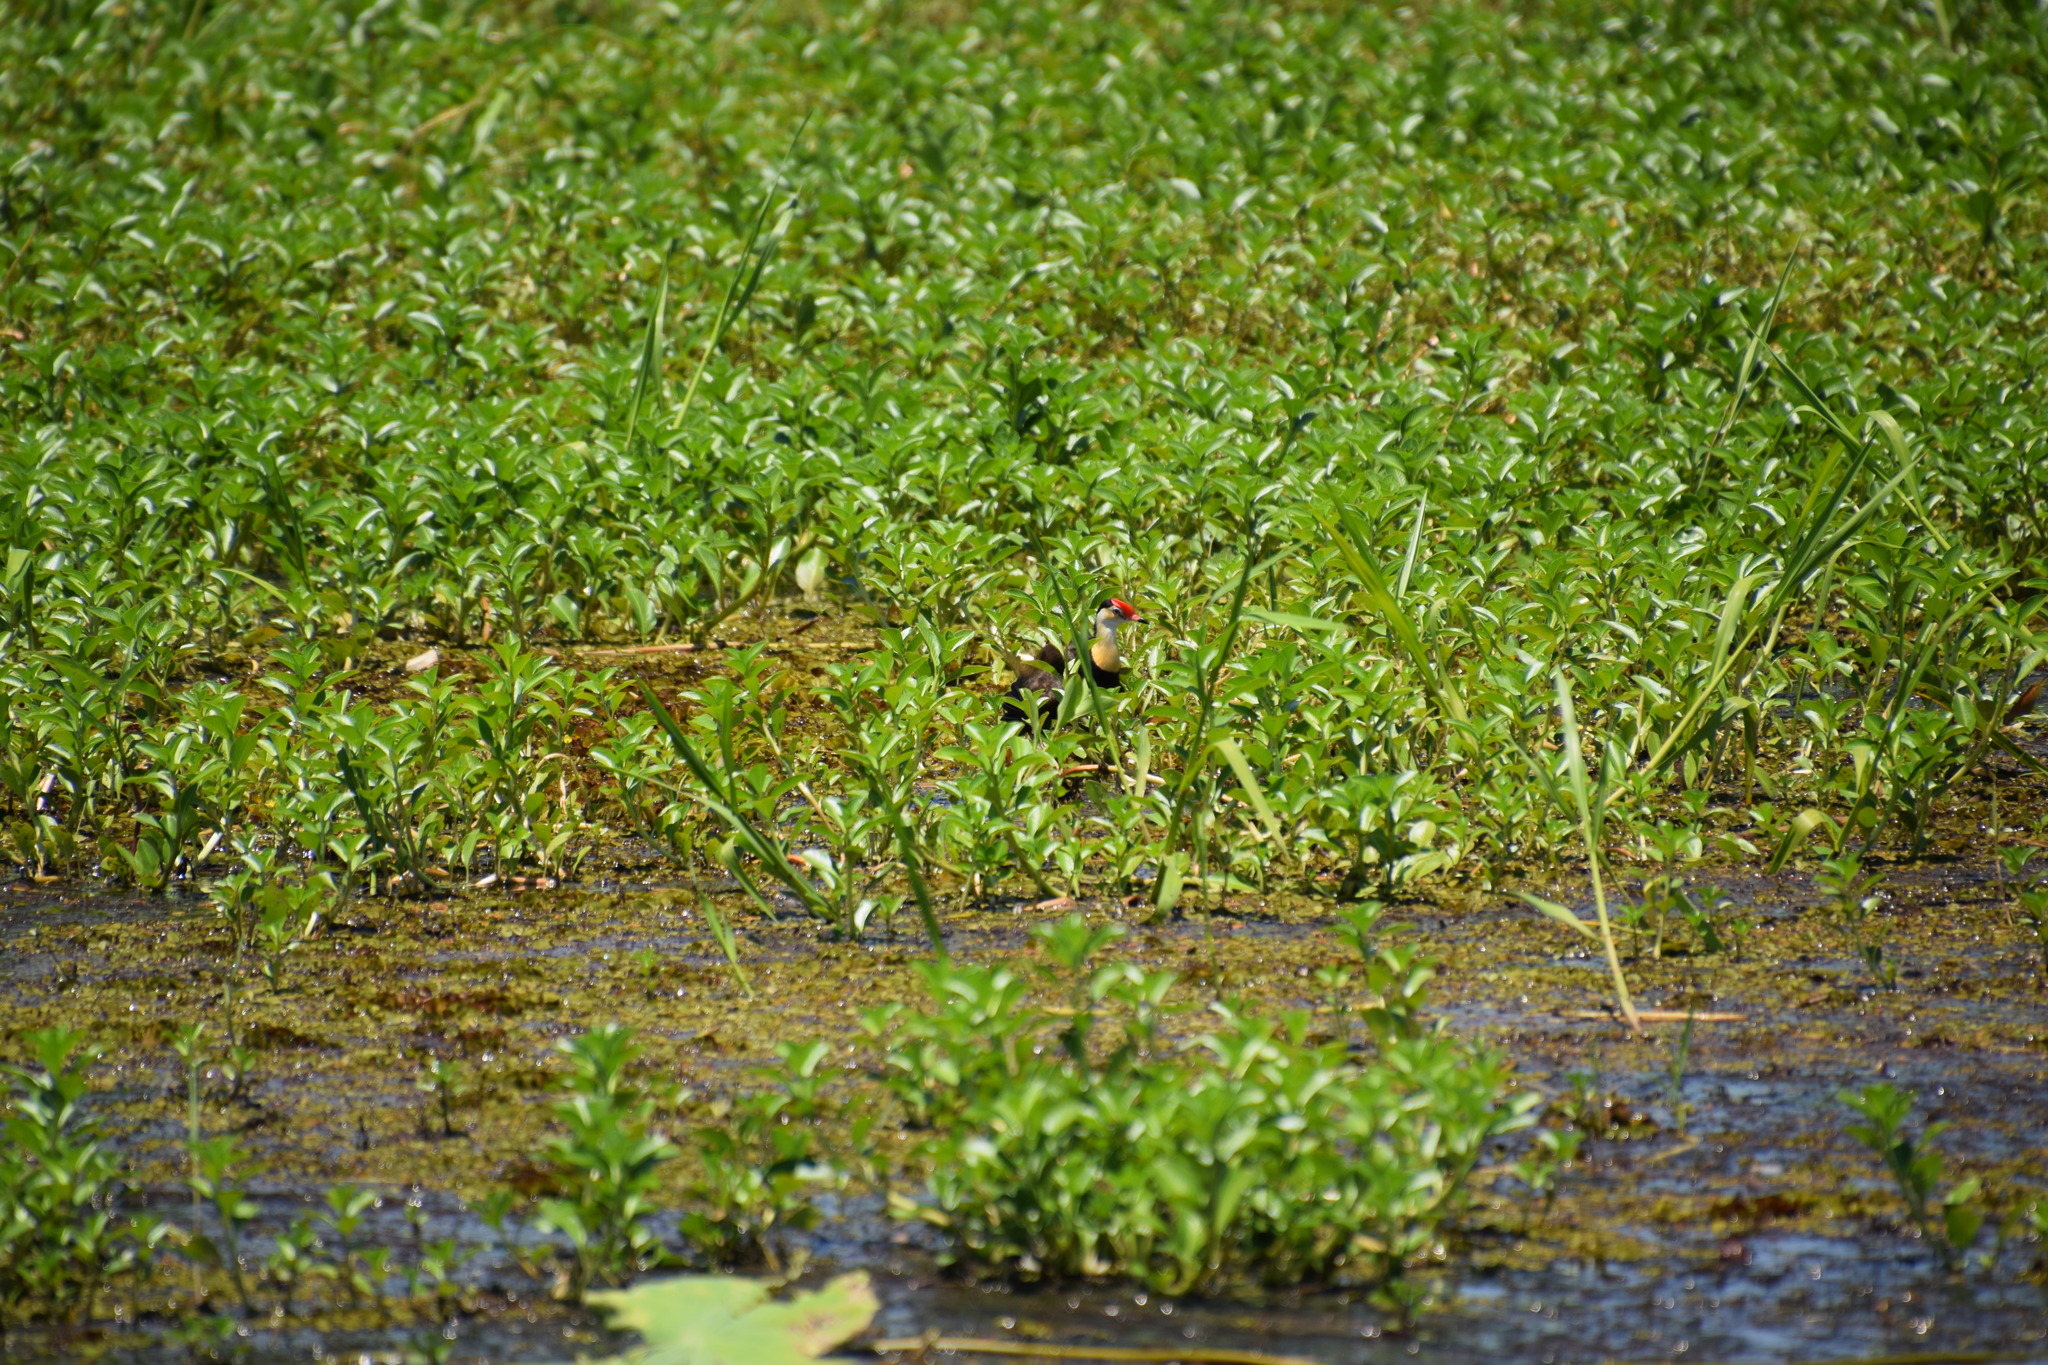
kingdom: Animalia
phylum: Chordata
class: Aves
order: Charadriiformes
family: Jacanidae
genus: Irediparra
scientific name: Irediparra gallinacea
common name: Comb-crested jacana
